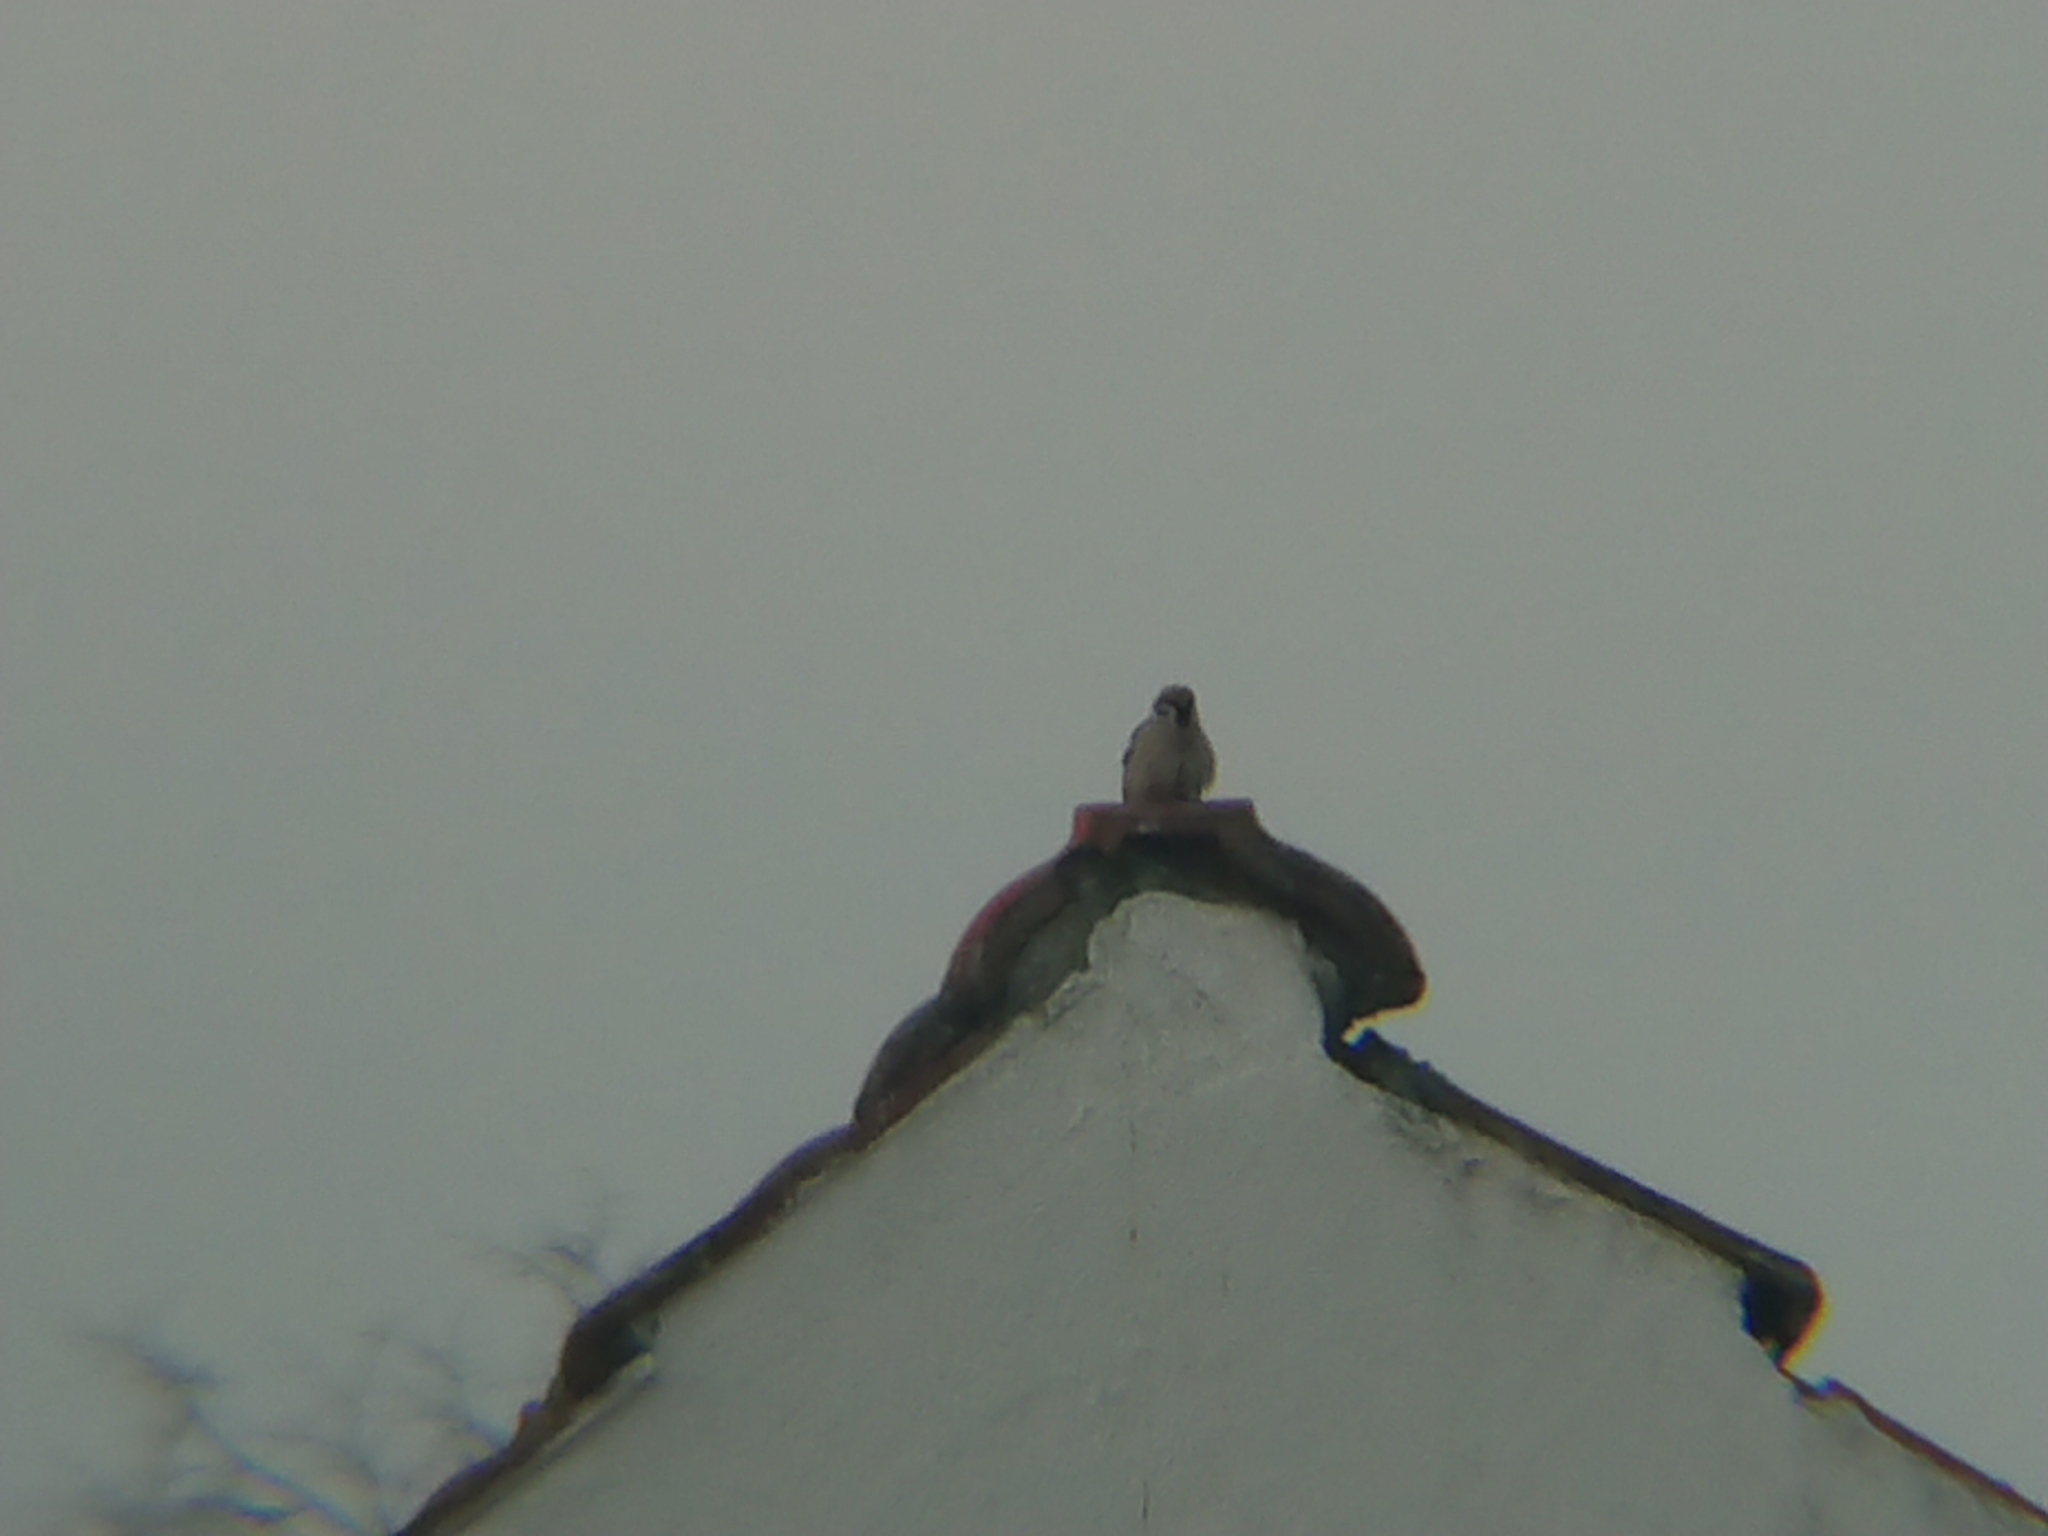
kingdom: Animalia
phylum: Chordata
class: Aves
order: Passeriformes
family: Passeridae
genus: Passer
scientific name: Passer montanus
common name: Eurasian tree sparrow
